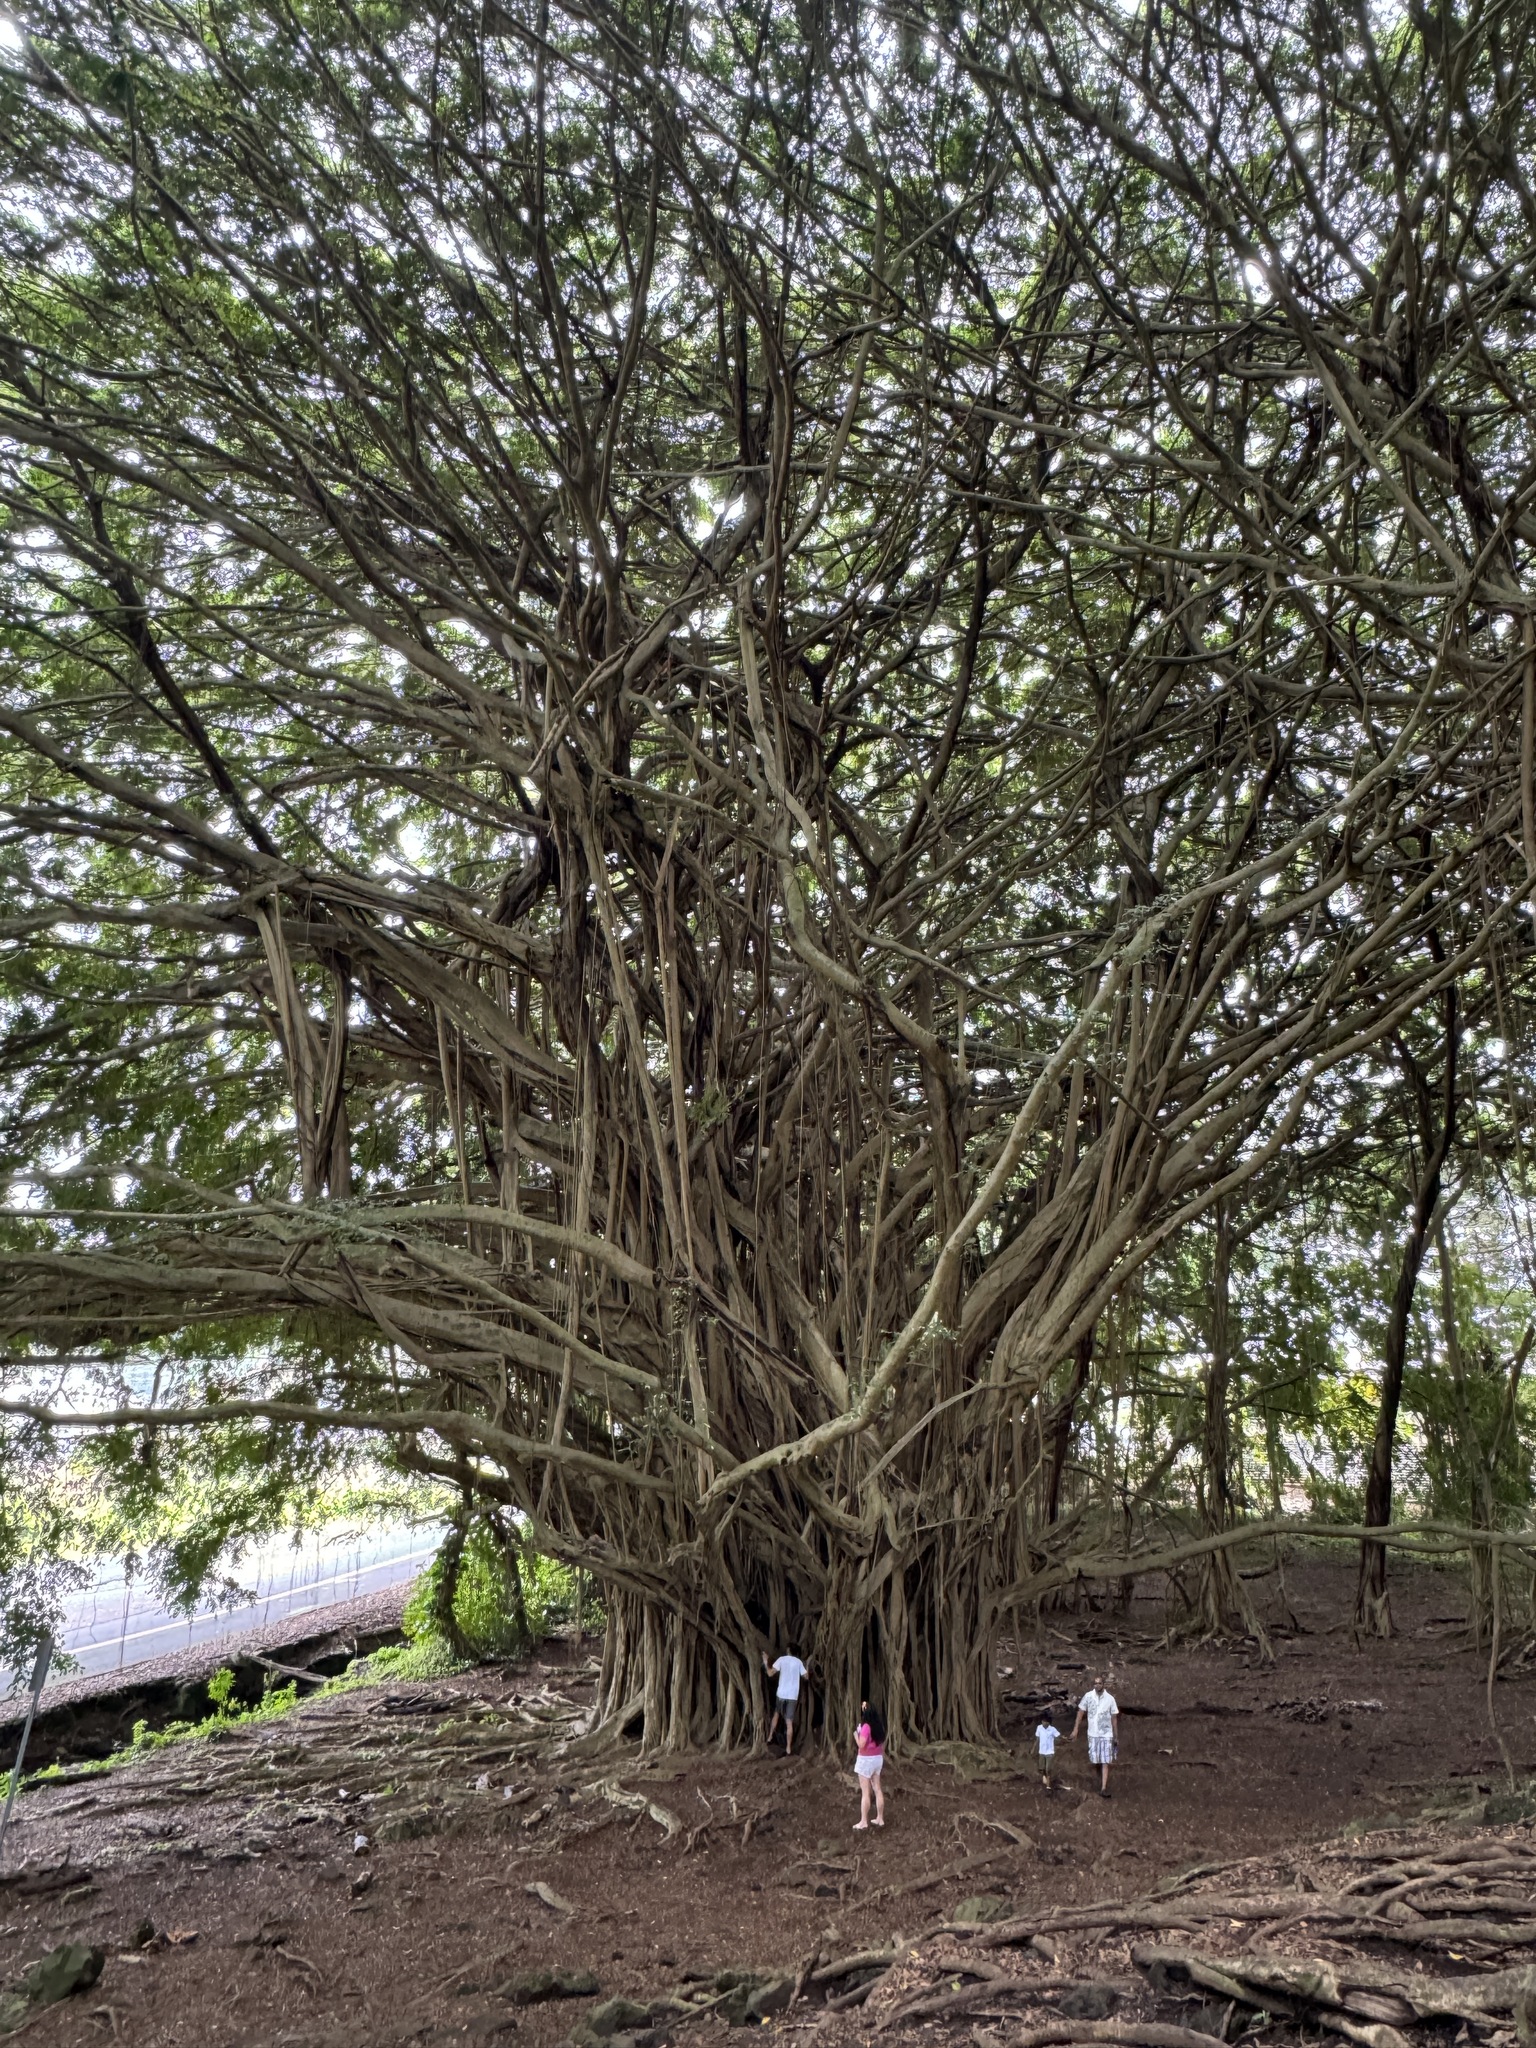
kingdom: Plantae
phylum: Tracheophyta
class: Magnoliopsida
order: Rosales
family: Moraceae
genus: Ficus
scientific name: Ficus microcarpa
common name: Chinese banyan
